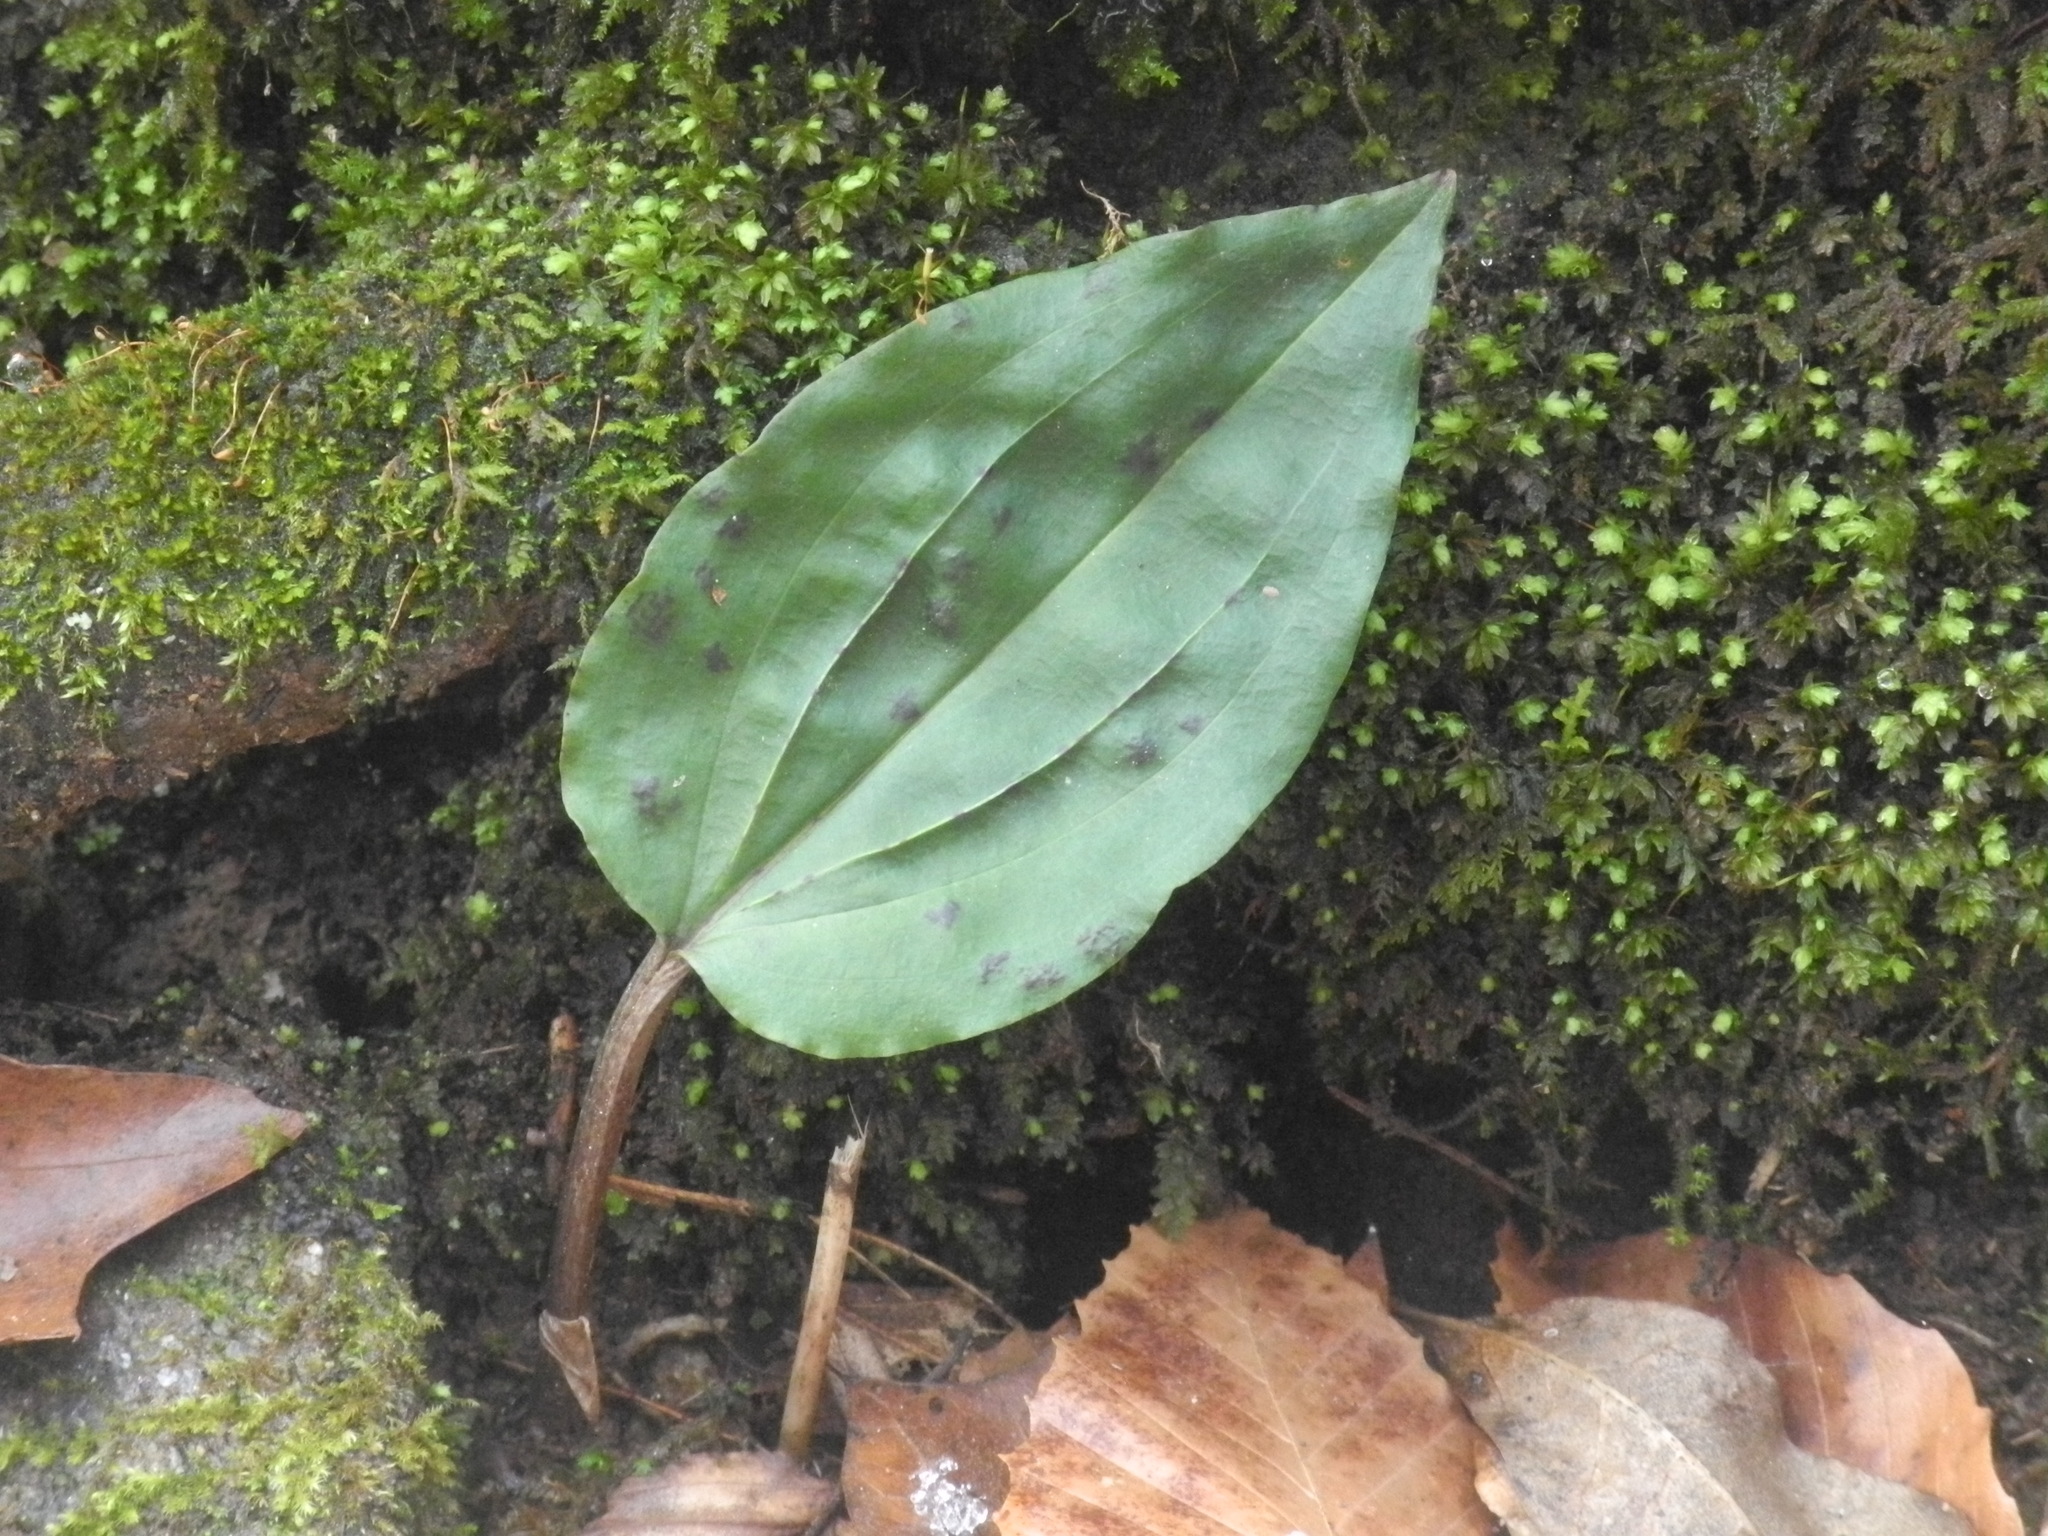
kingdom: Plantae
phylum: Tracheophyta
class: Liliopsida
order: Asparagales
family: Orchidaceae
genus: Tipularia
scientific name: Tipularia discolor
